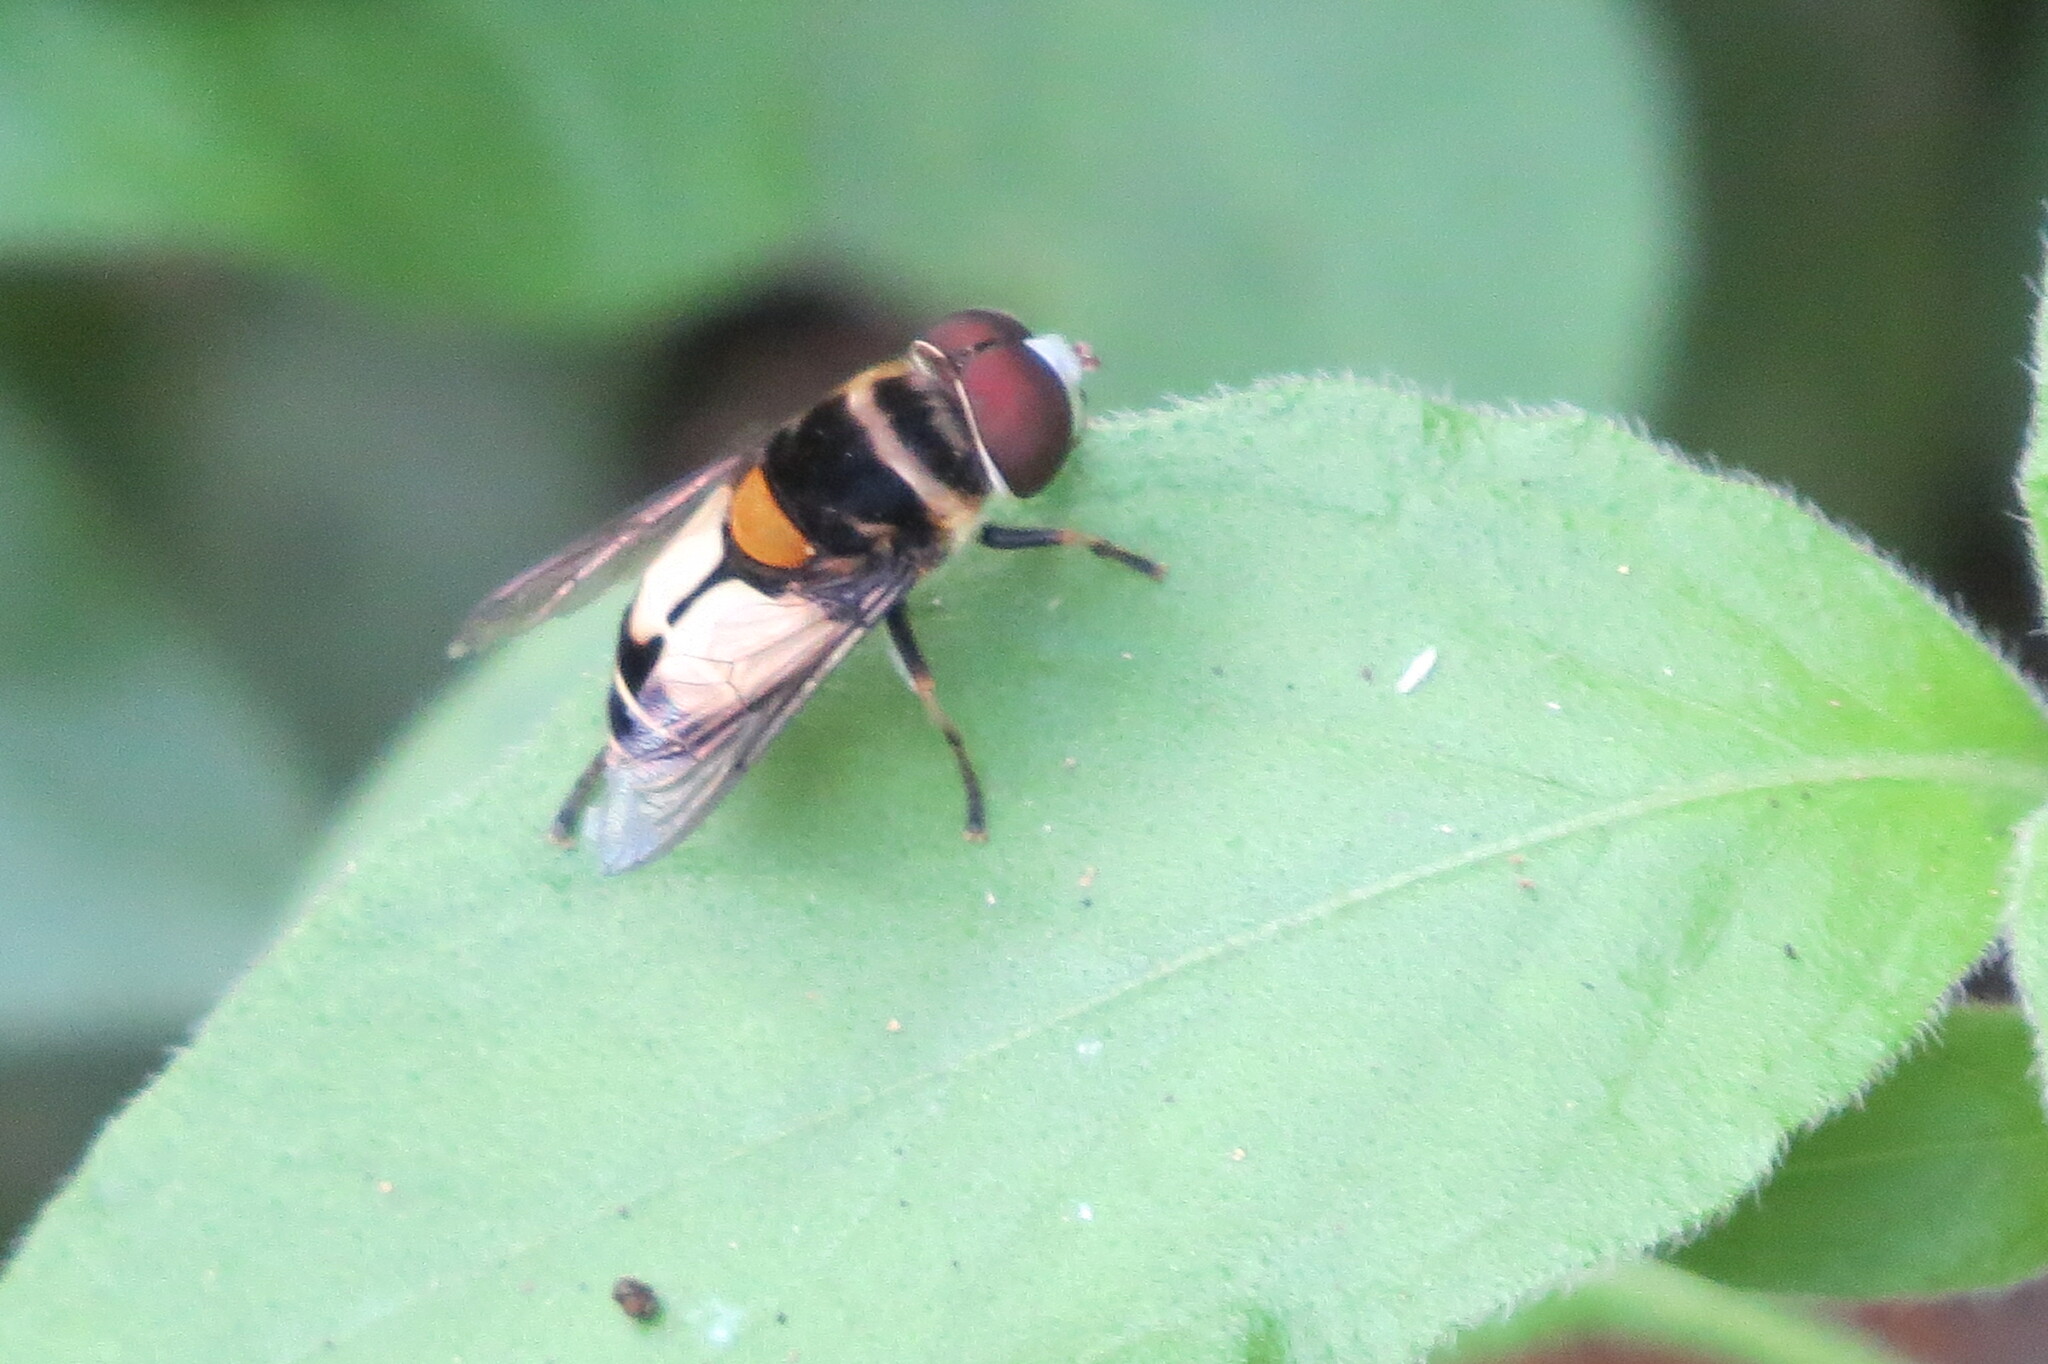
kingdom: Animalia
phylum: Arthropoda
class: Insecta
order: Diptera
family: Syrphidae
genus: Palpada
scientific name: Palpada albifrons
